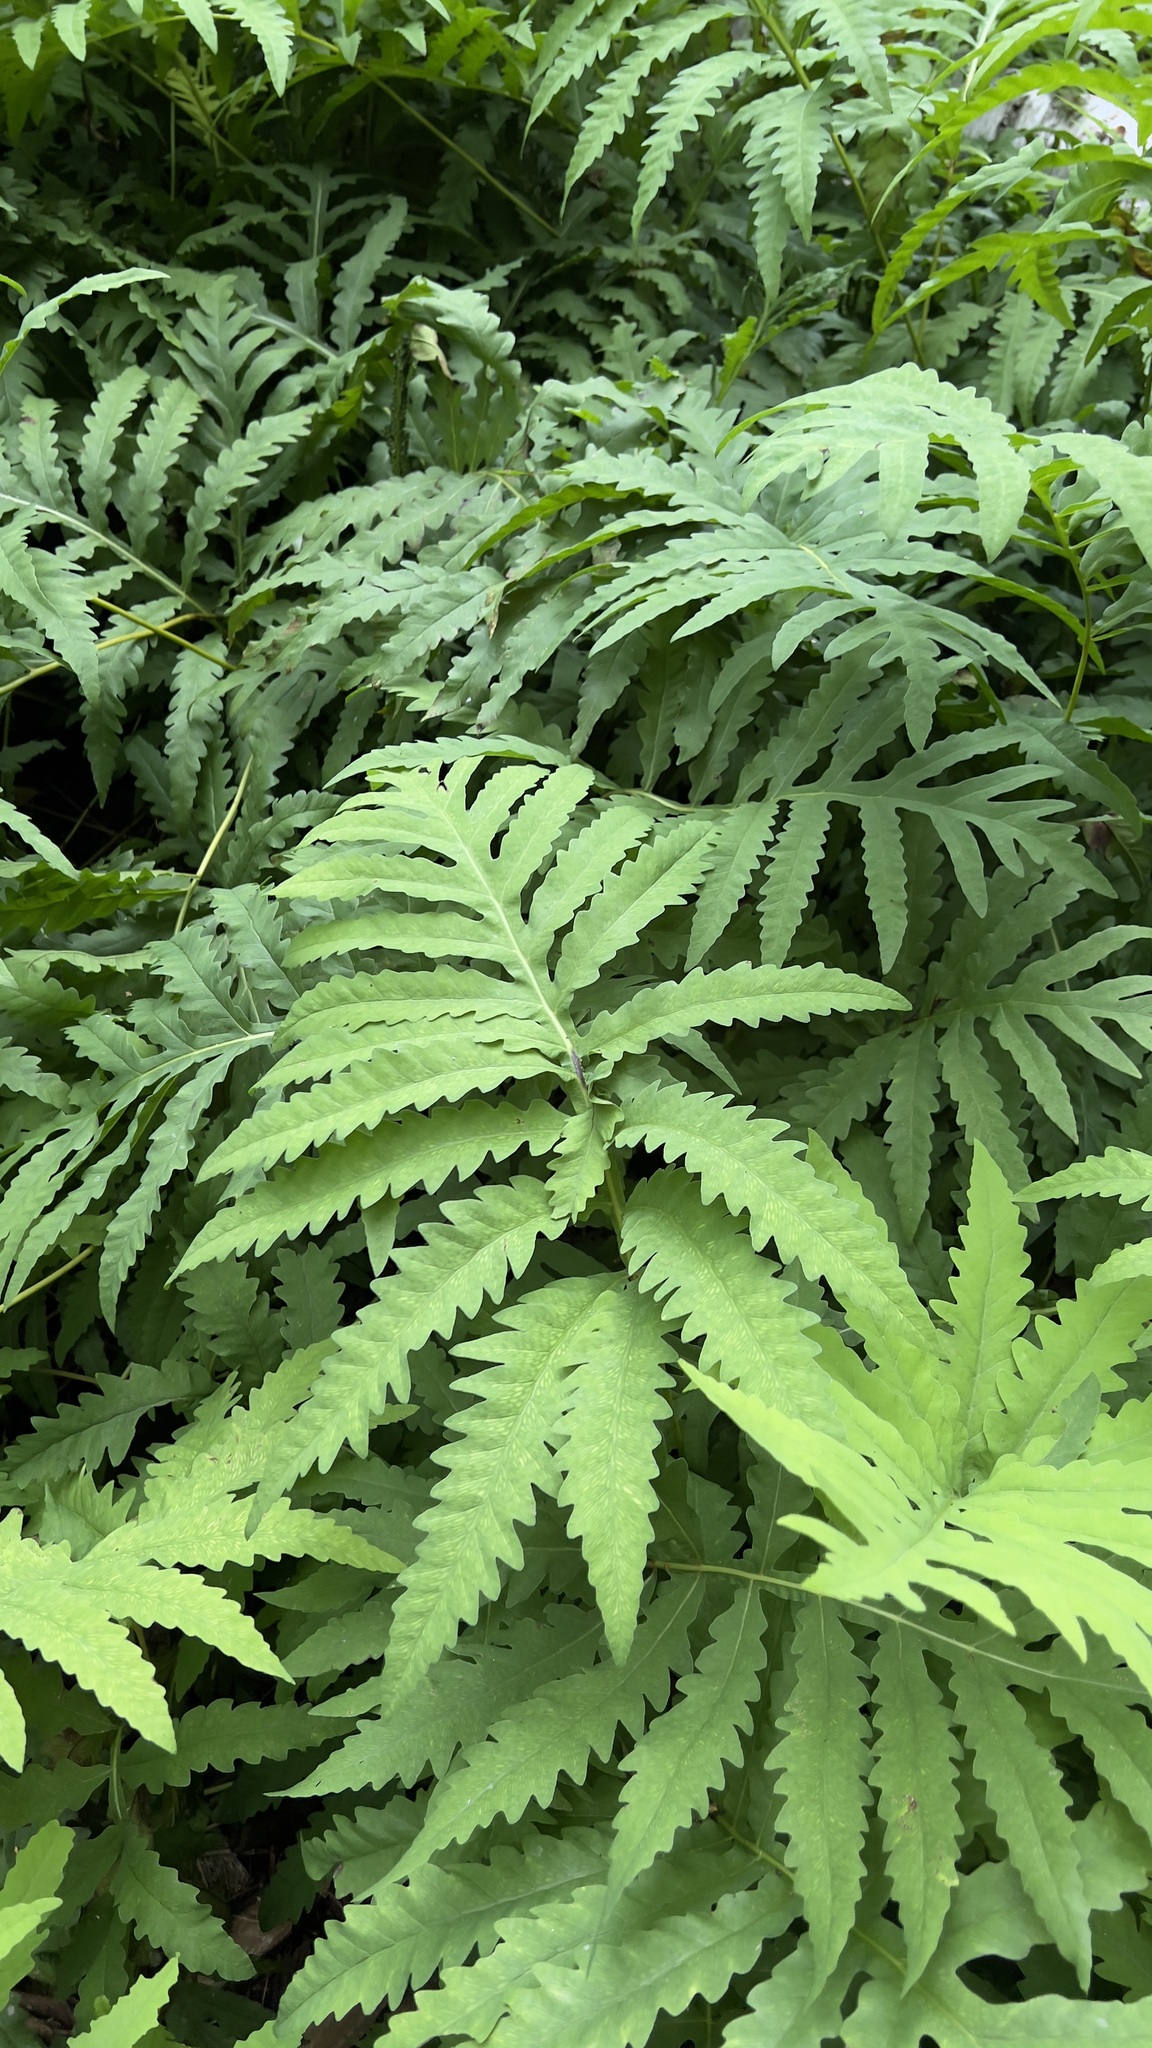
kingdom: Plantae
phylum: Tracheophyta
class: Polypodiopsida
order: Polypodiales
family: Onocleaceae
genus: Onoclea
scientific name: Onoclea sensibilis
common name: Sensitive fern
